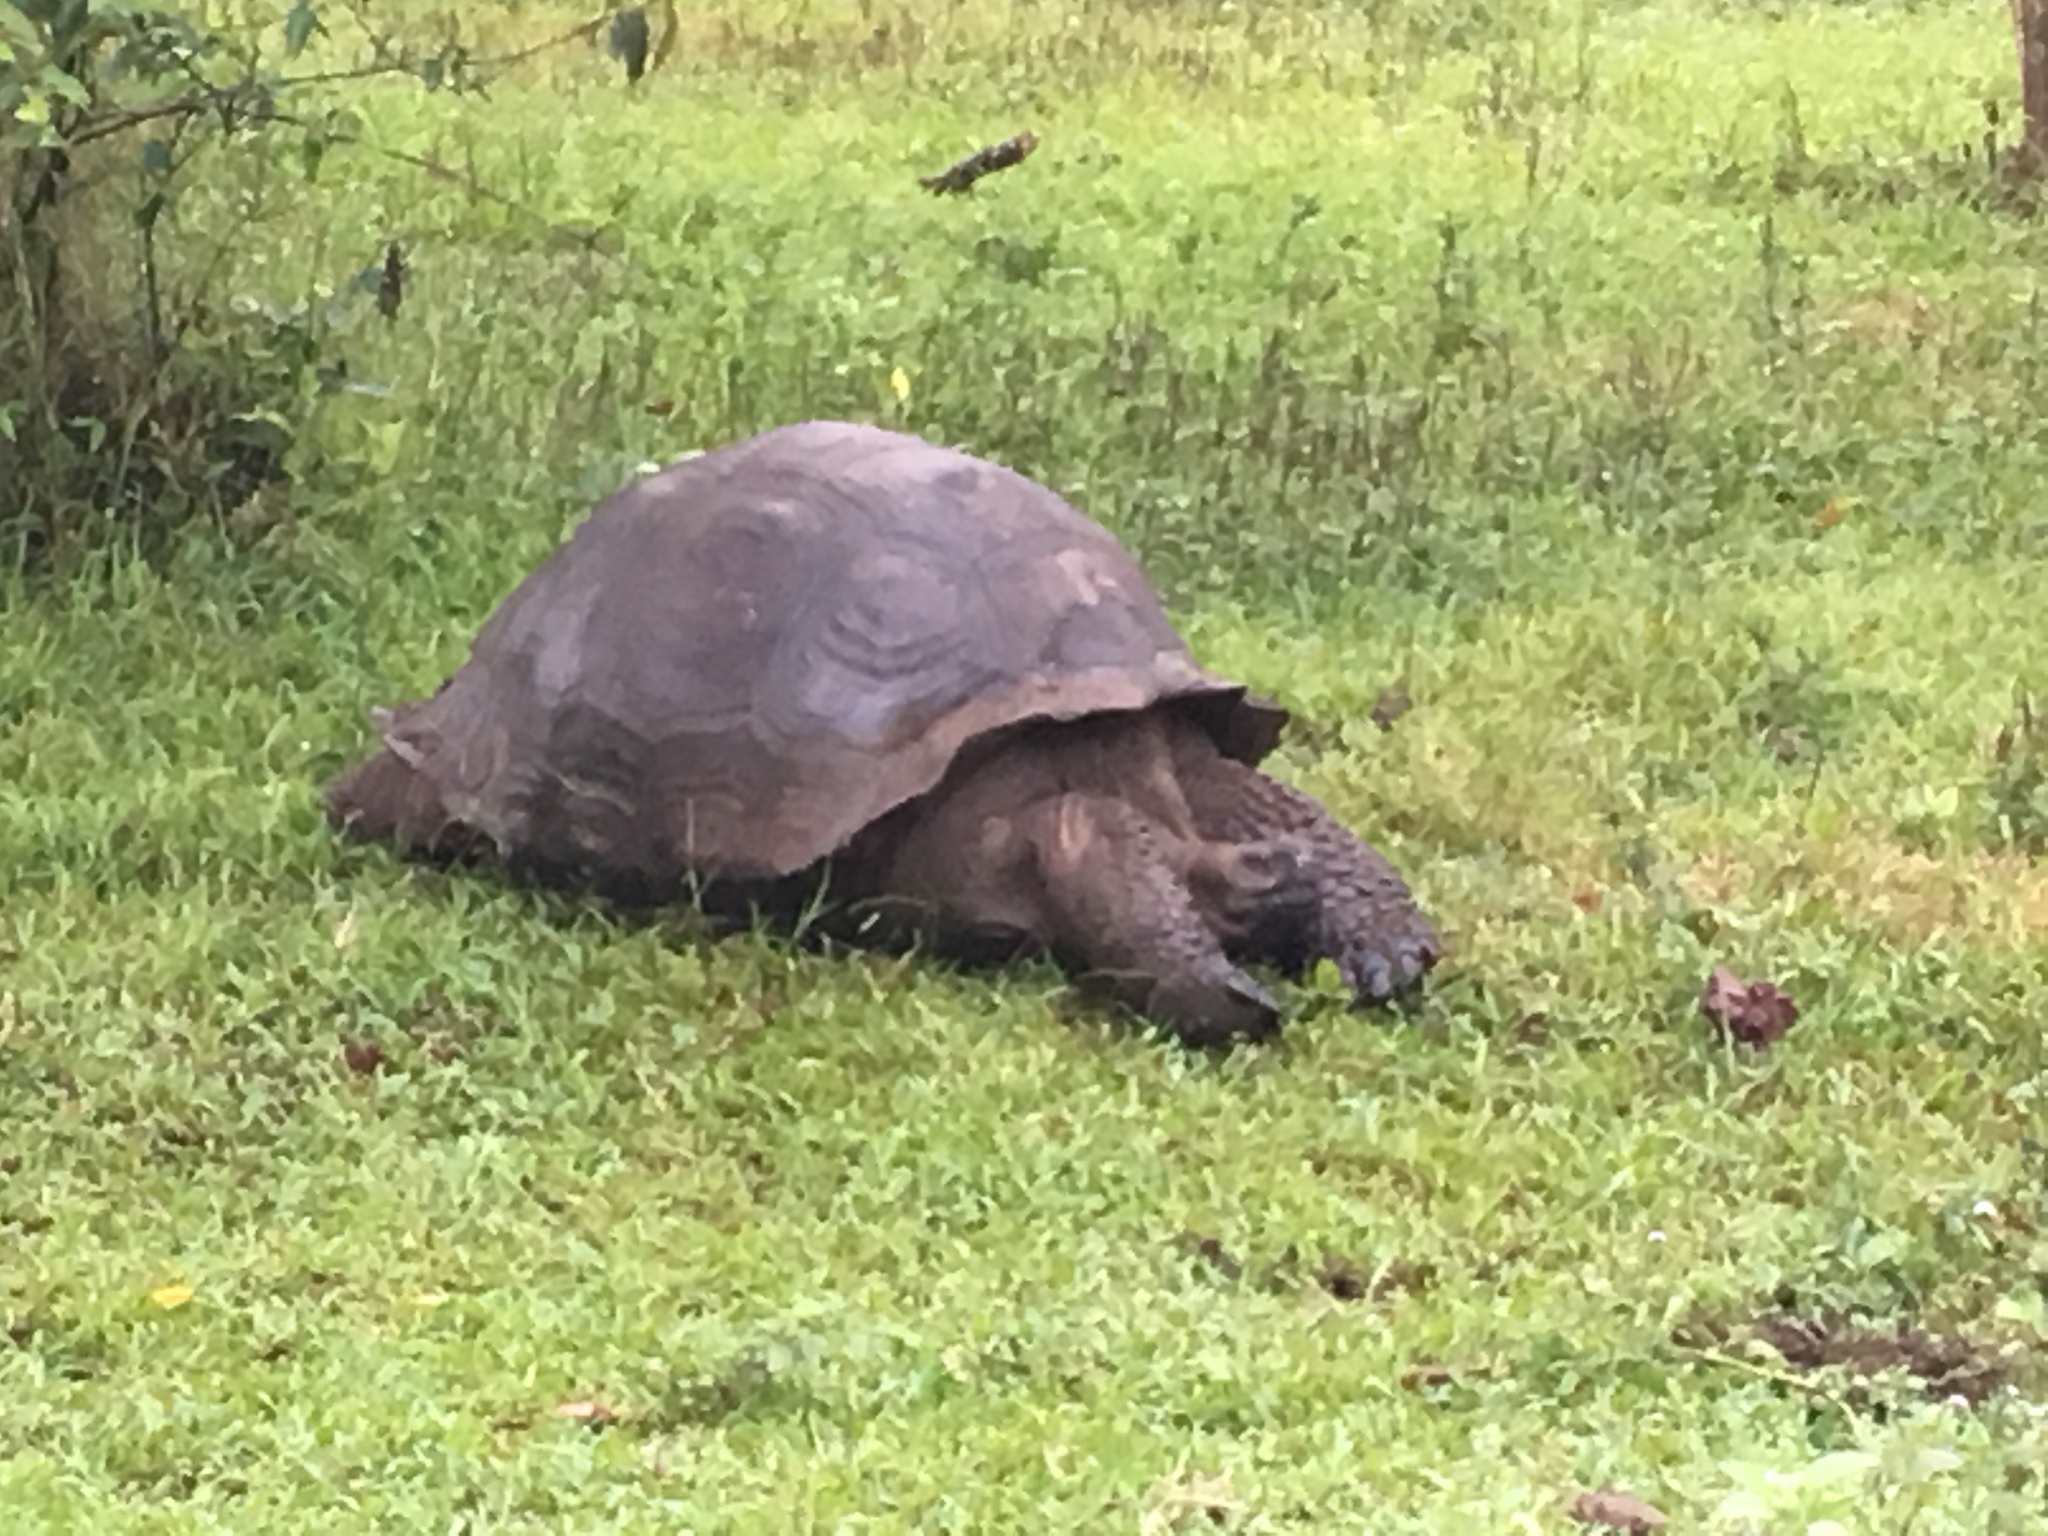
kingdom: Animalia
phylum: Chordata
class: Testudines
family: Testudinidae
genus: Chelonoidis
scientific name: Chelonoidis porteri
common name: Indefatigable island giant tortoise
